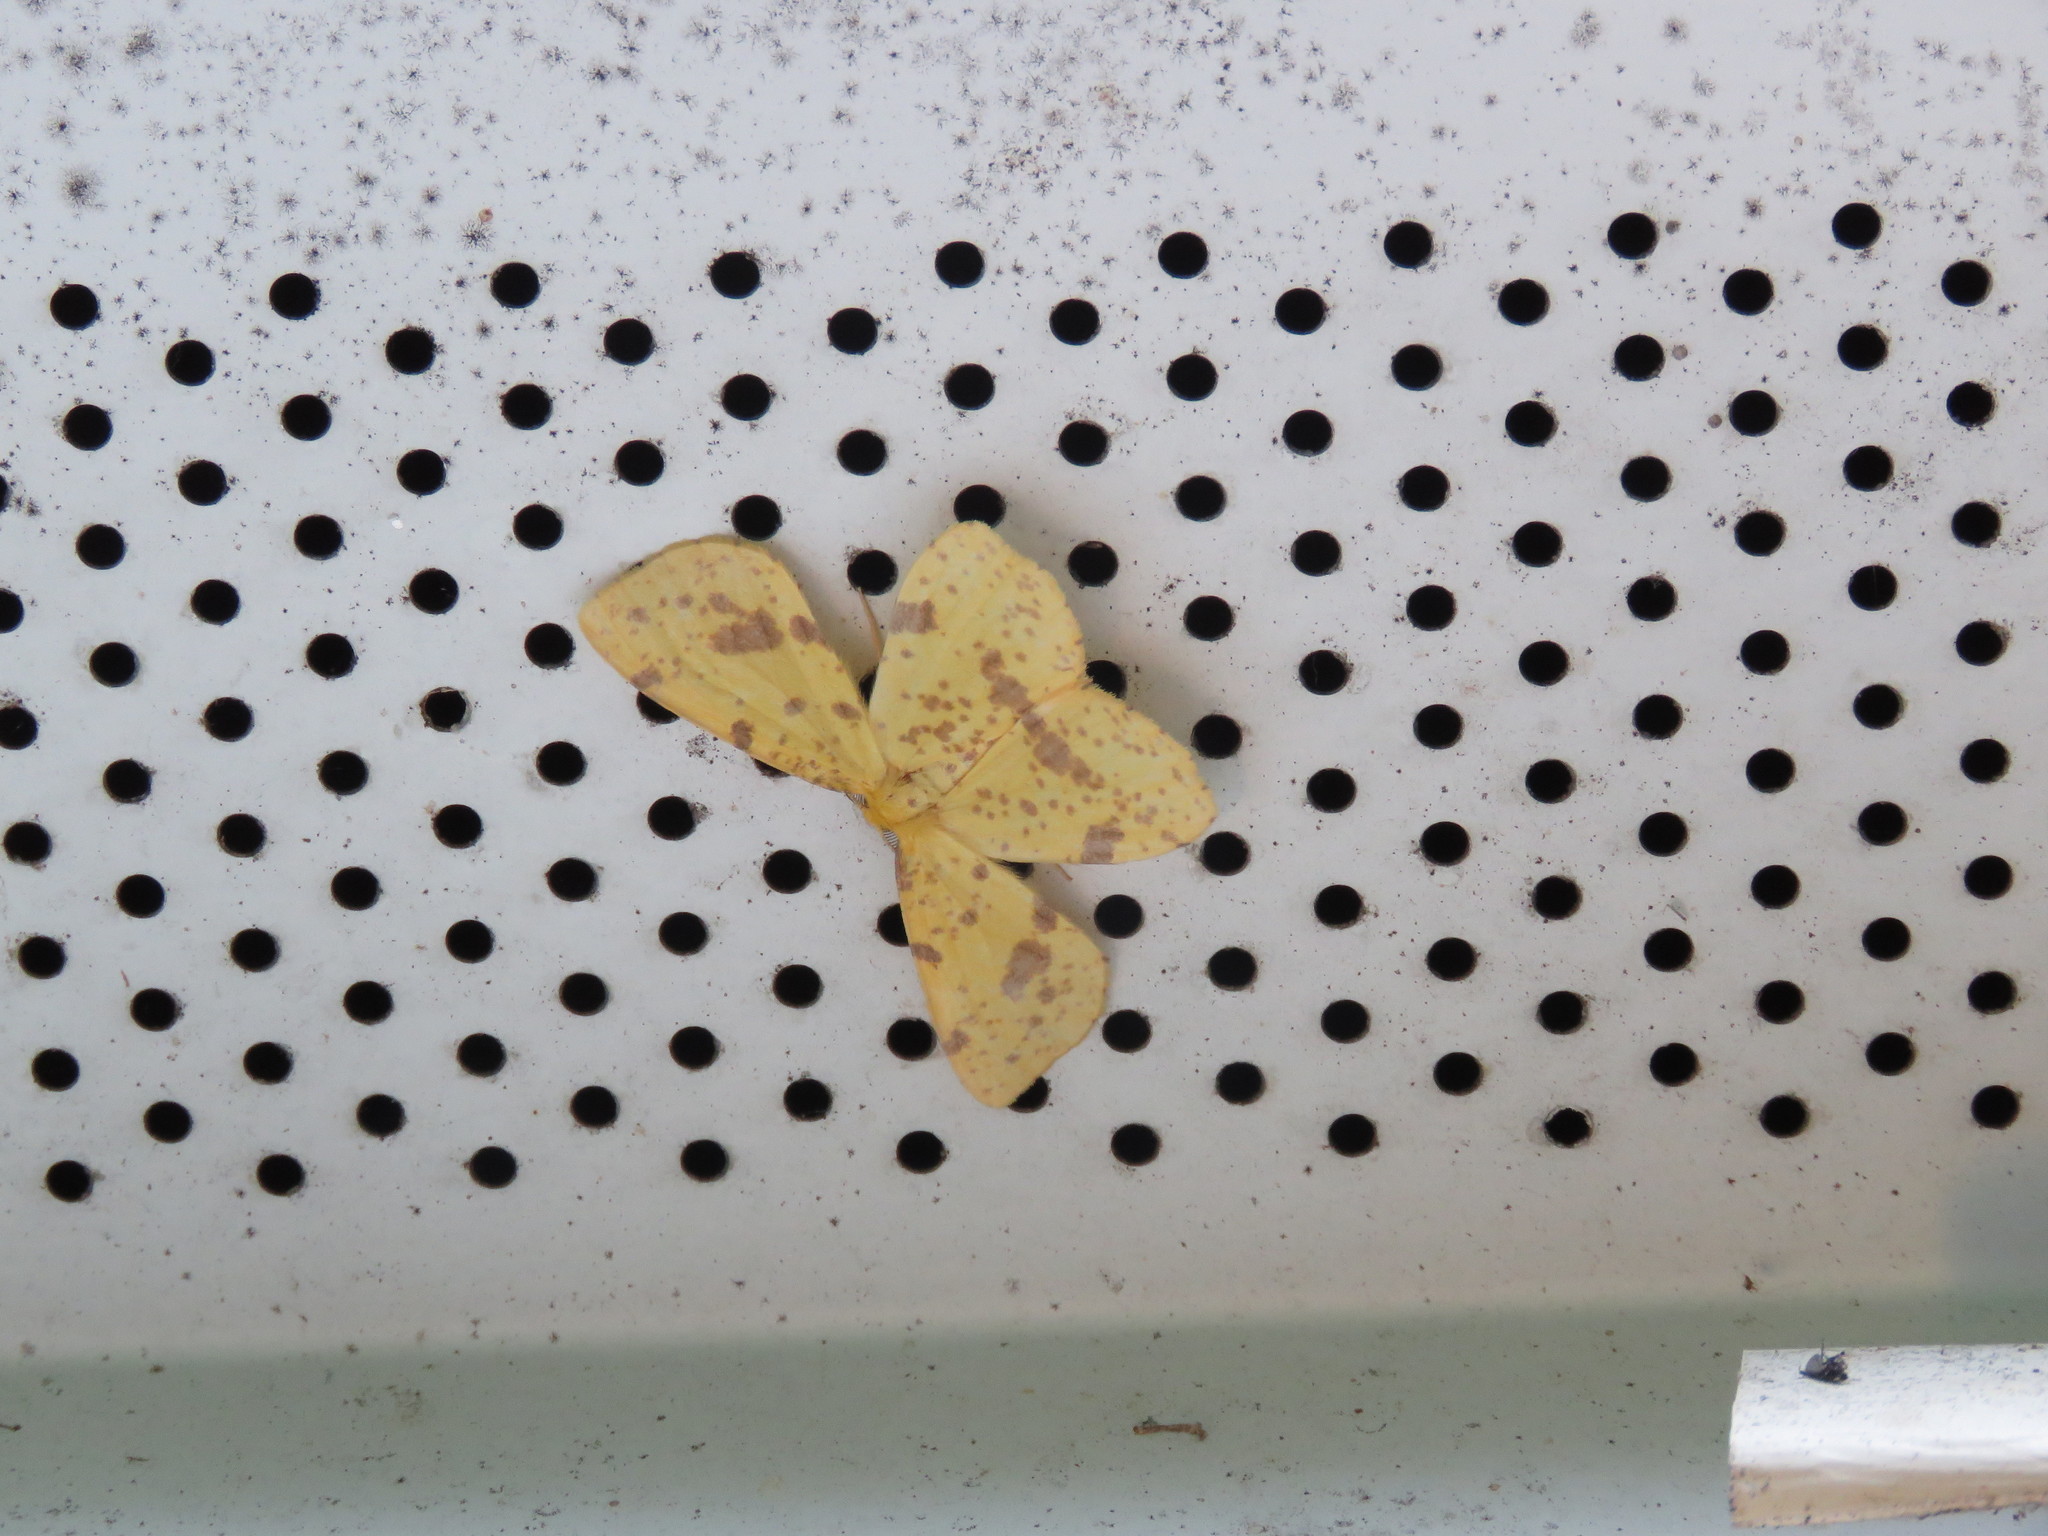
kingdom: Animalia
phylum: Arthropoda
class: Insecta
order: Lepidoptera
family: Geometridae
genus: Xanthorhoe
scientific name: Xanthorhoe
